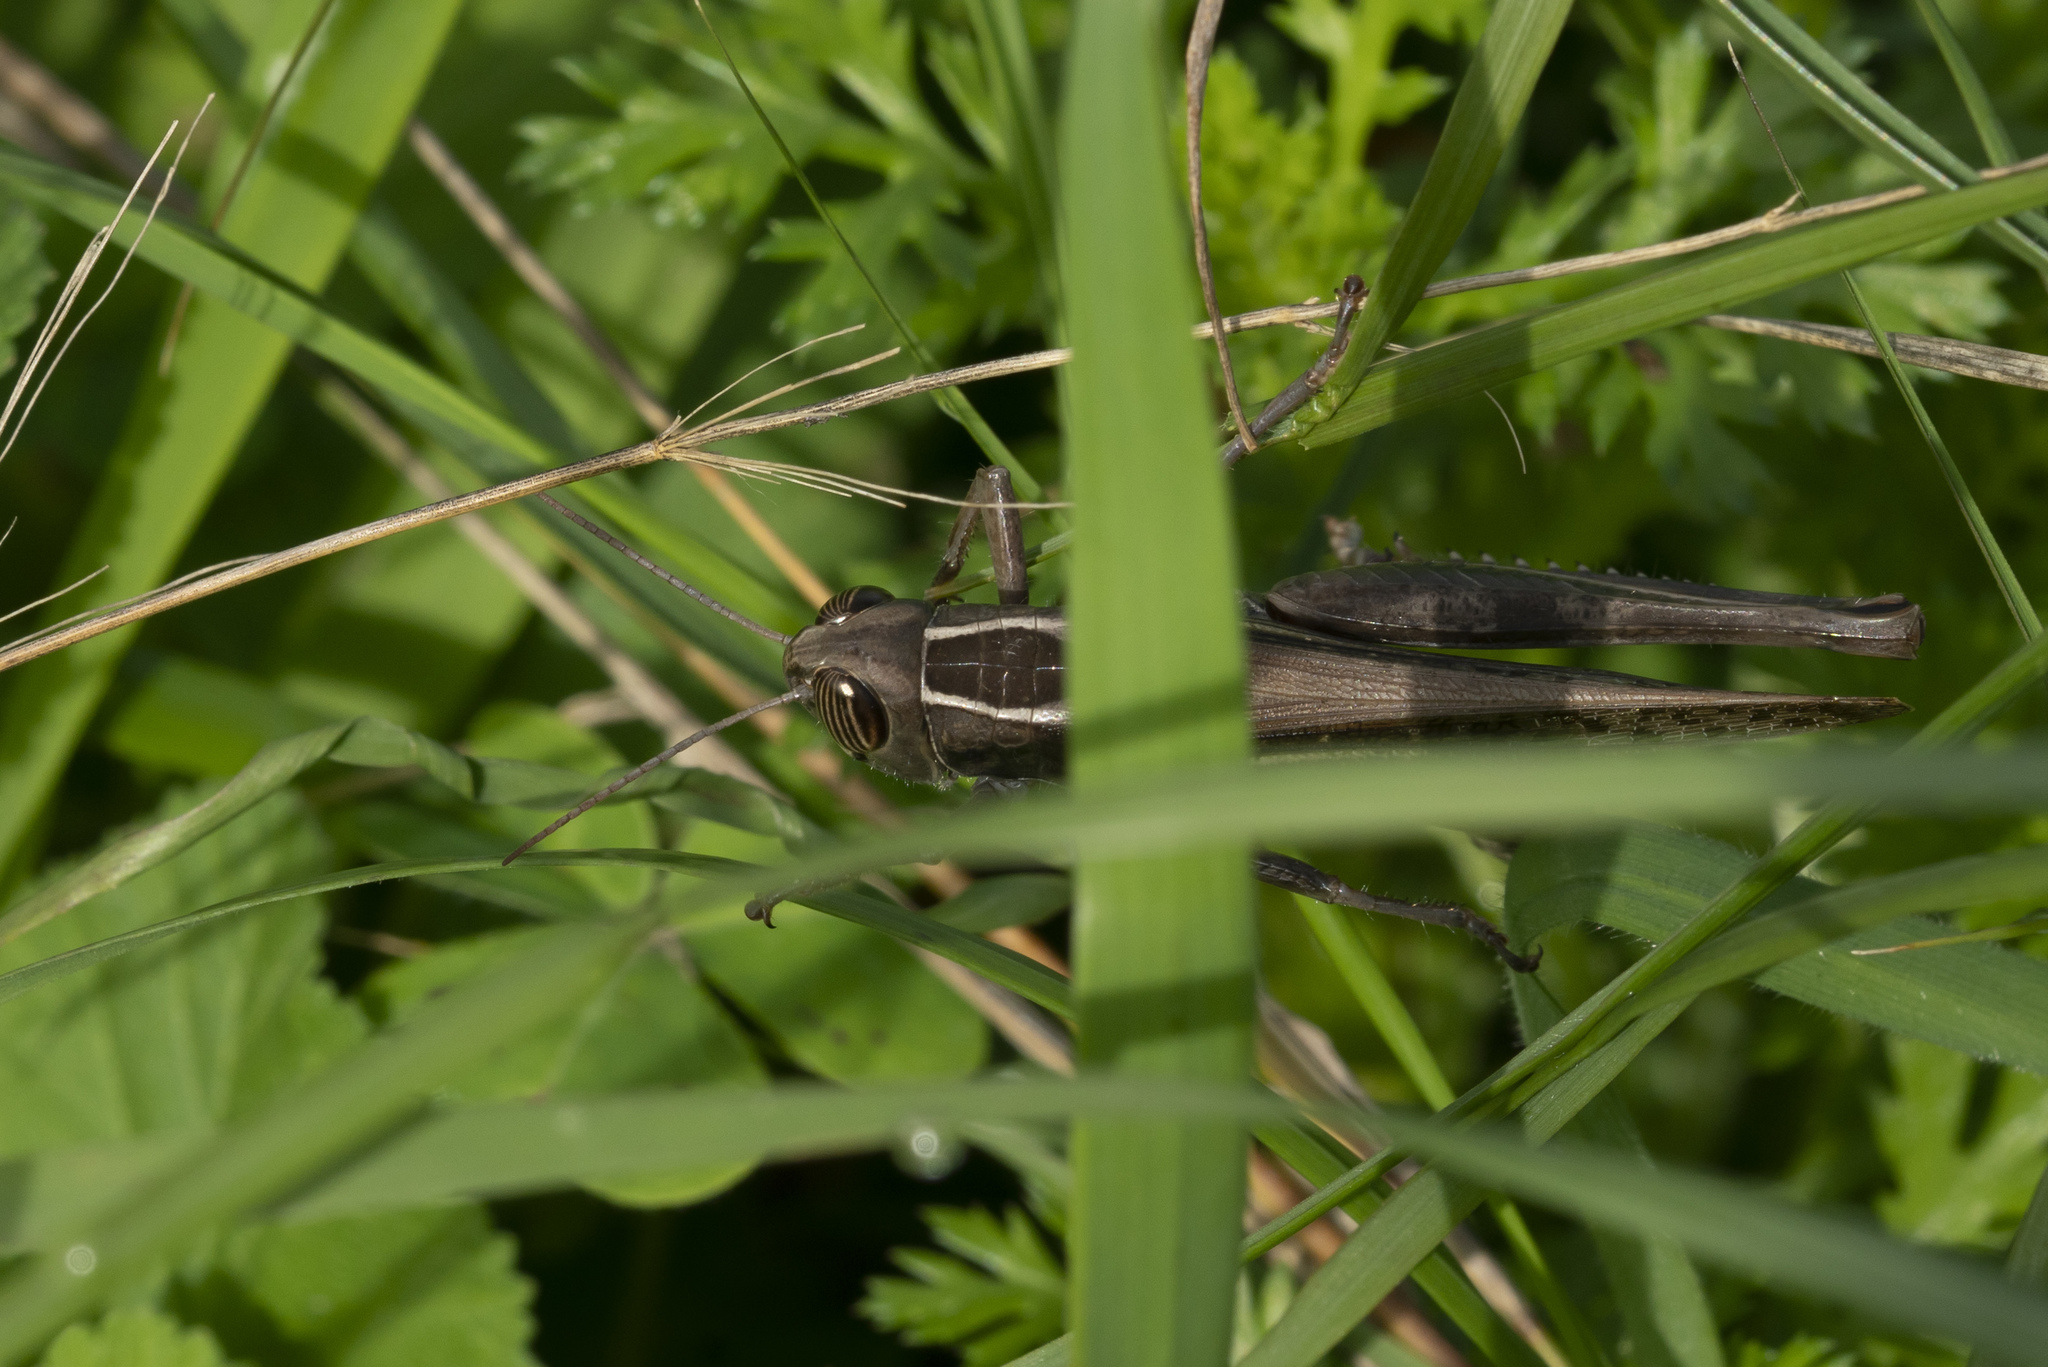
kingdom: Animalia
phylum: Arthropoda
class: Insecta
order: Orthoptera
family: Acrididae
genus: Heteracris
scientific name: Heteracris littoralis
